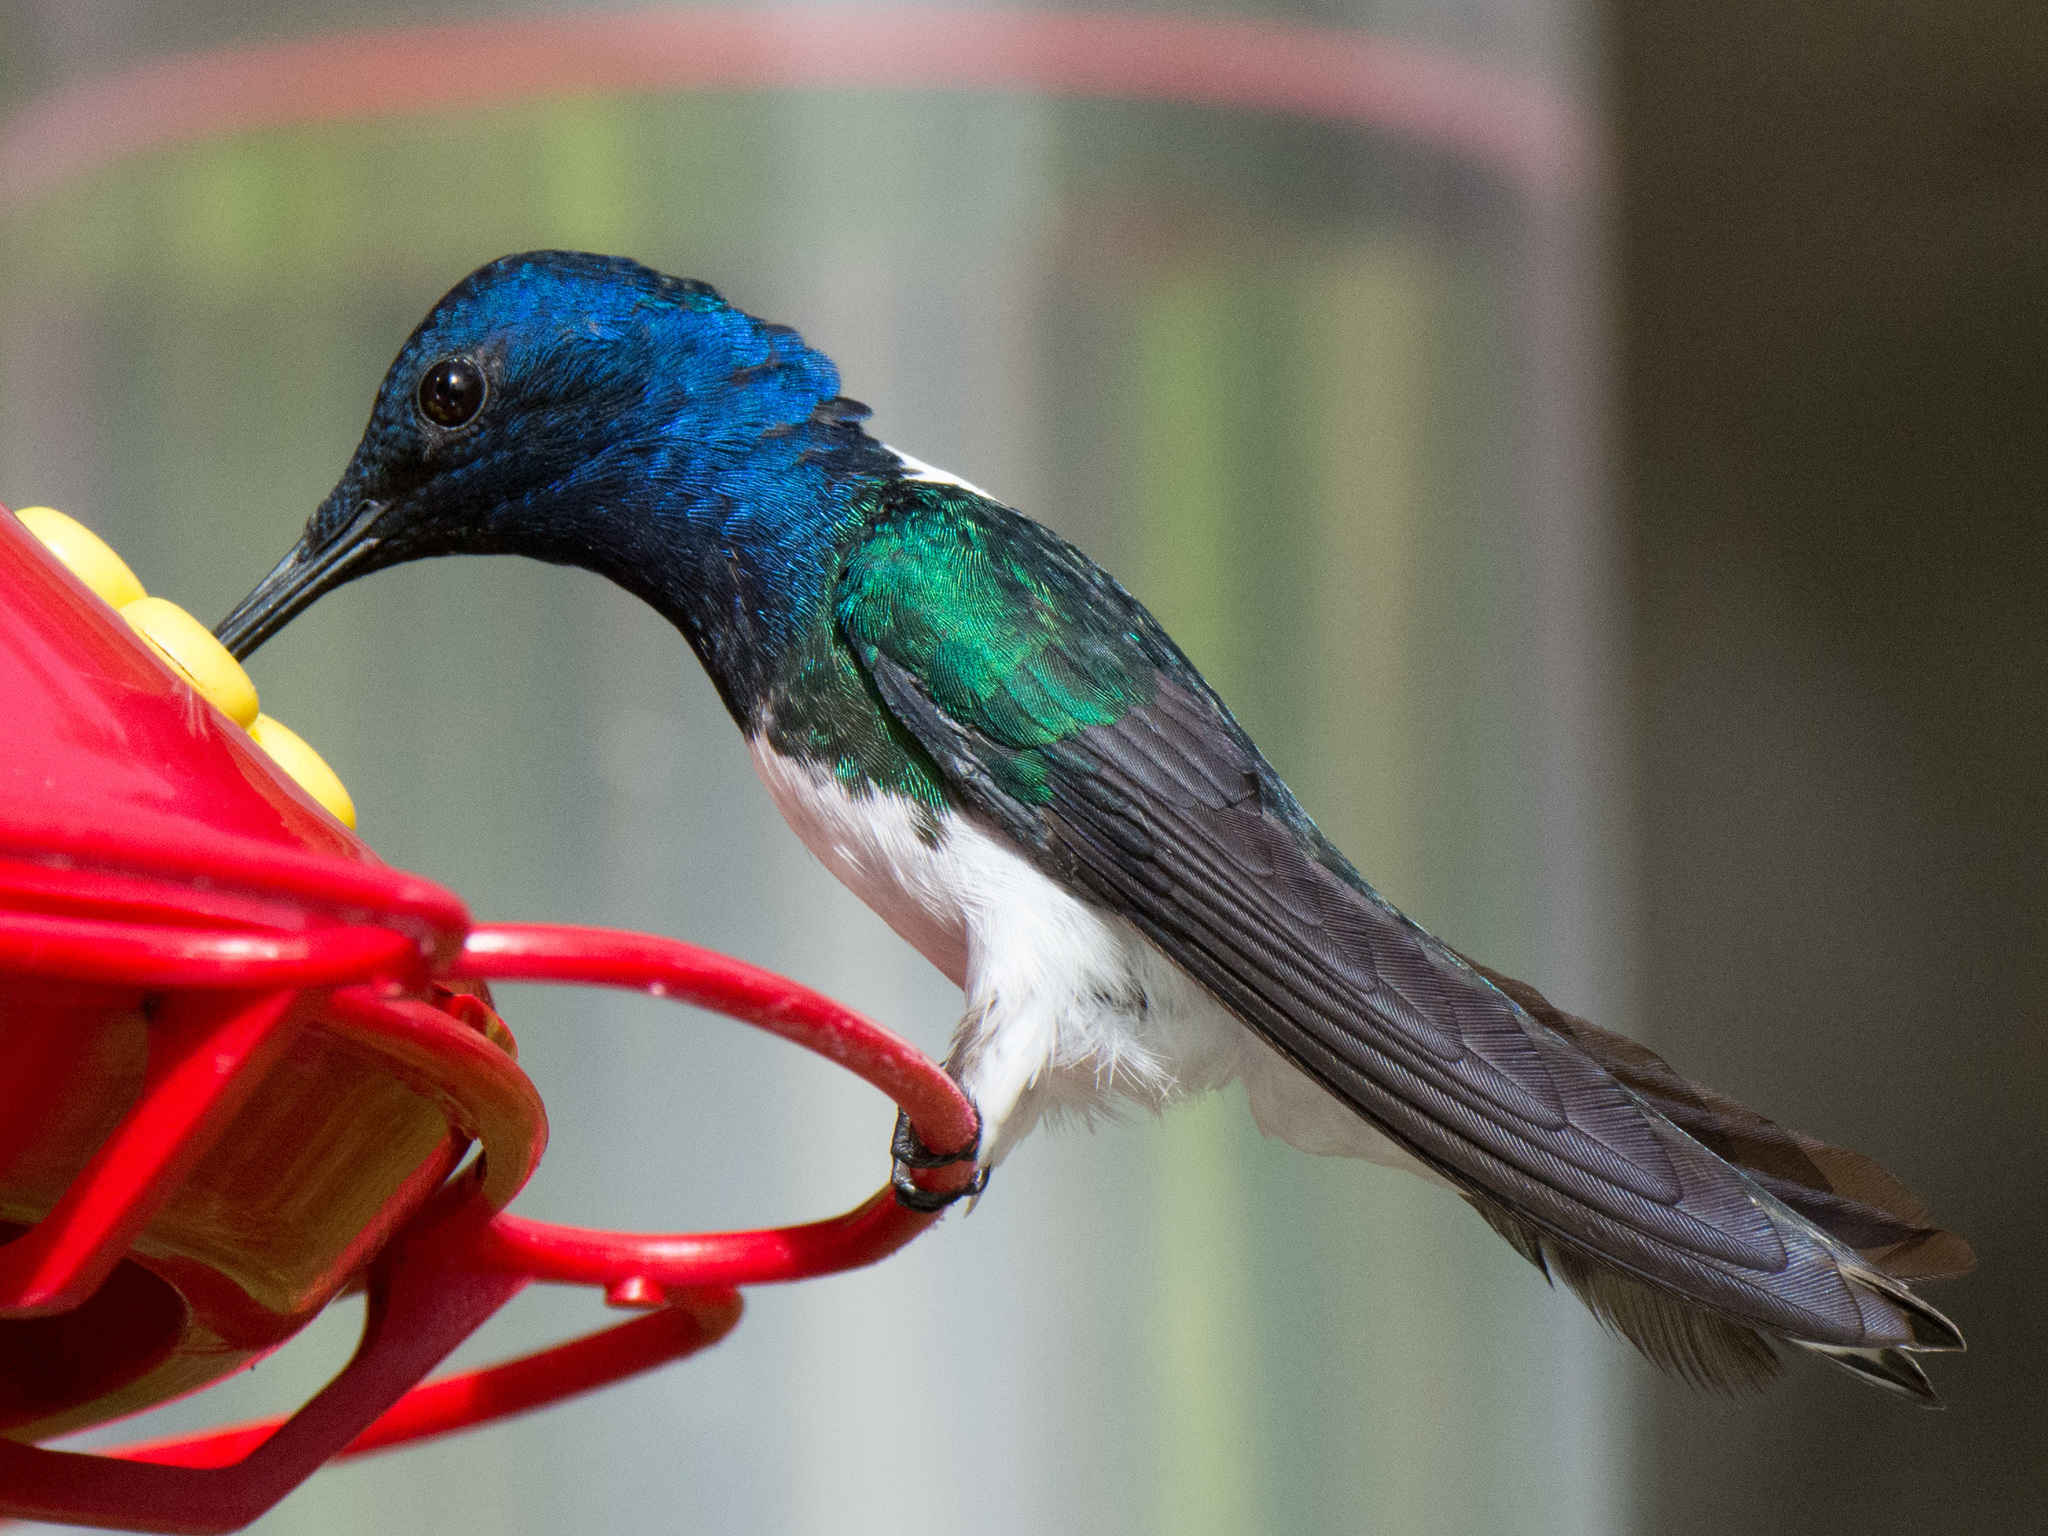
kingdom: Animalia
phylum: Chordata
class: Aves
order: Apodiformes
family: Trochilidae
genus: Florisuga
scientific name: Florisuga mellivora
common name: White-necked jacobin
